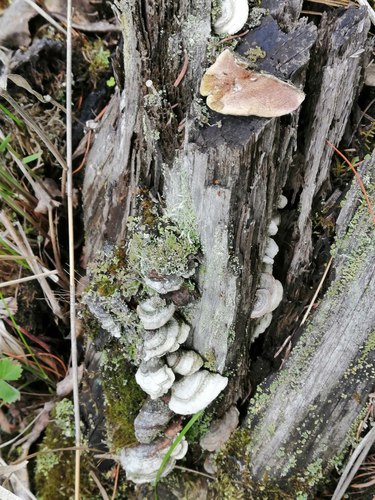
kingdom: Fungi
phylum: Basidiomycota
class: Agaricomycetes
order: Hymenochaetales
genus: Trichaptum
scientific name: Trichaptum abietinum
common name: Purplepore bracket
